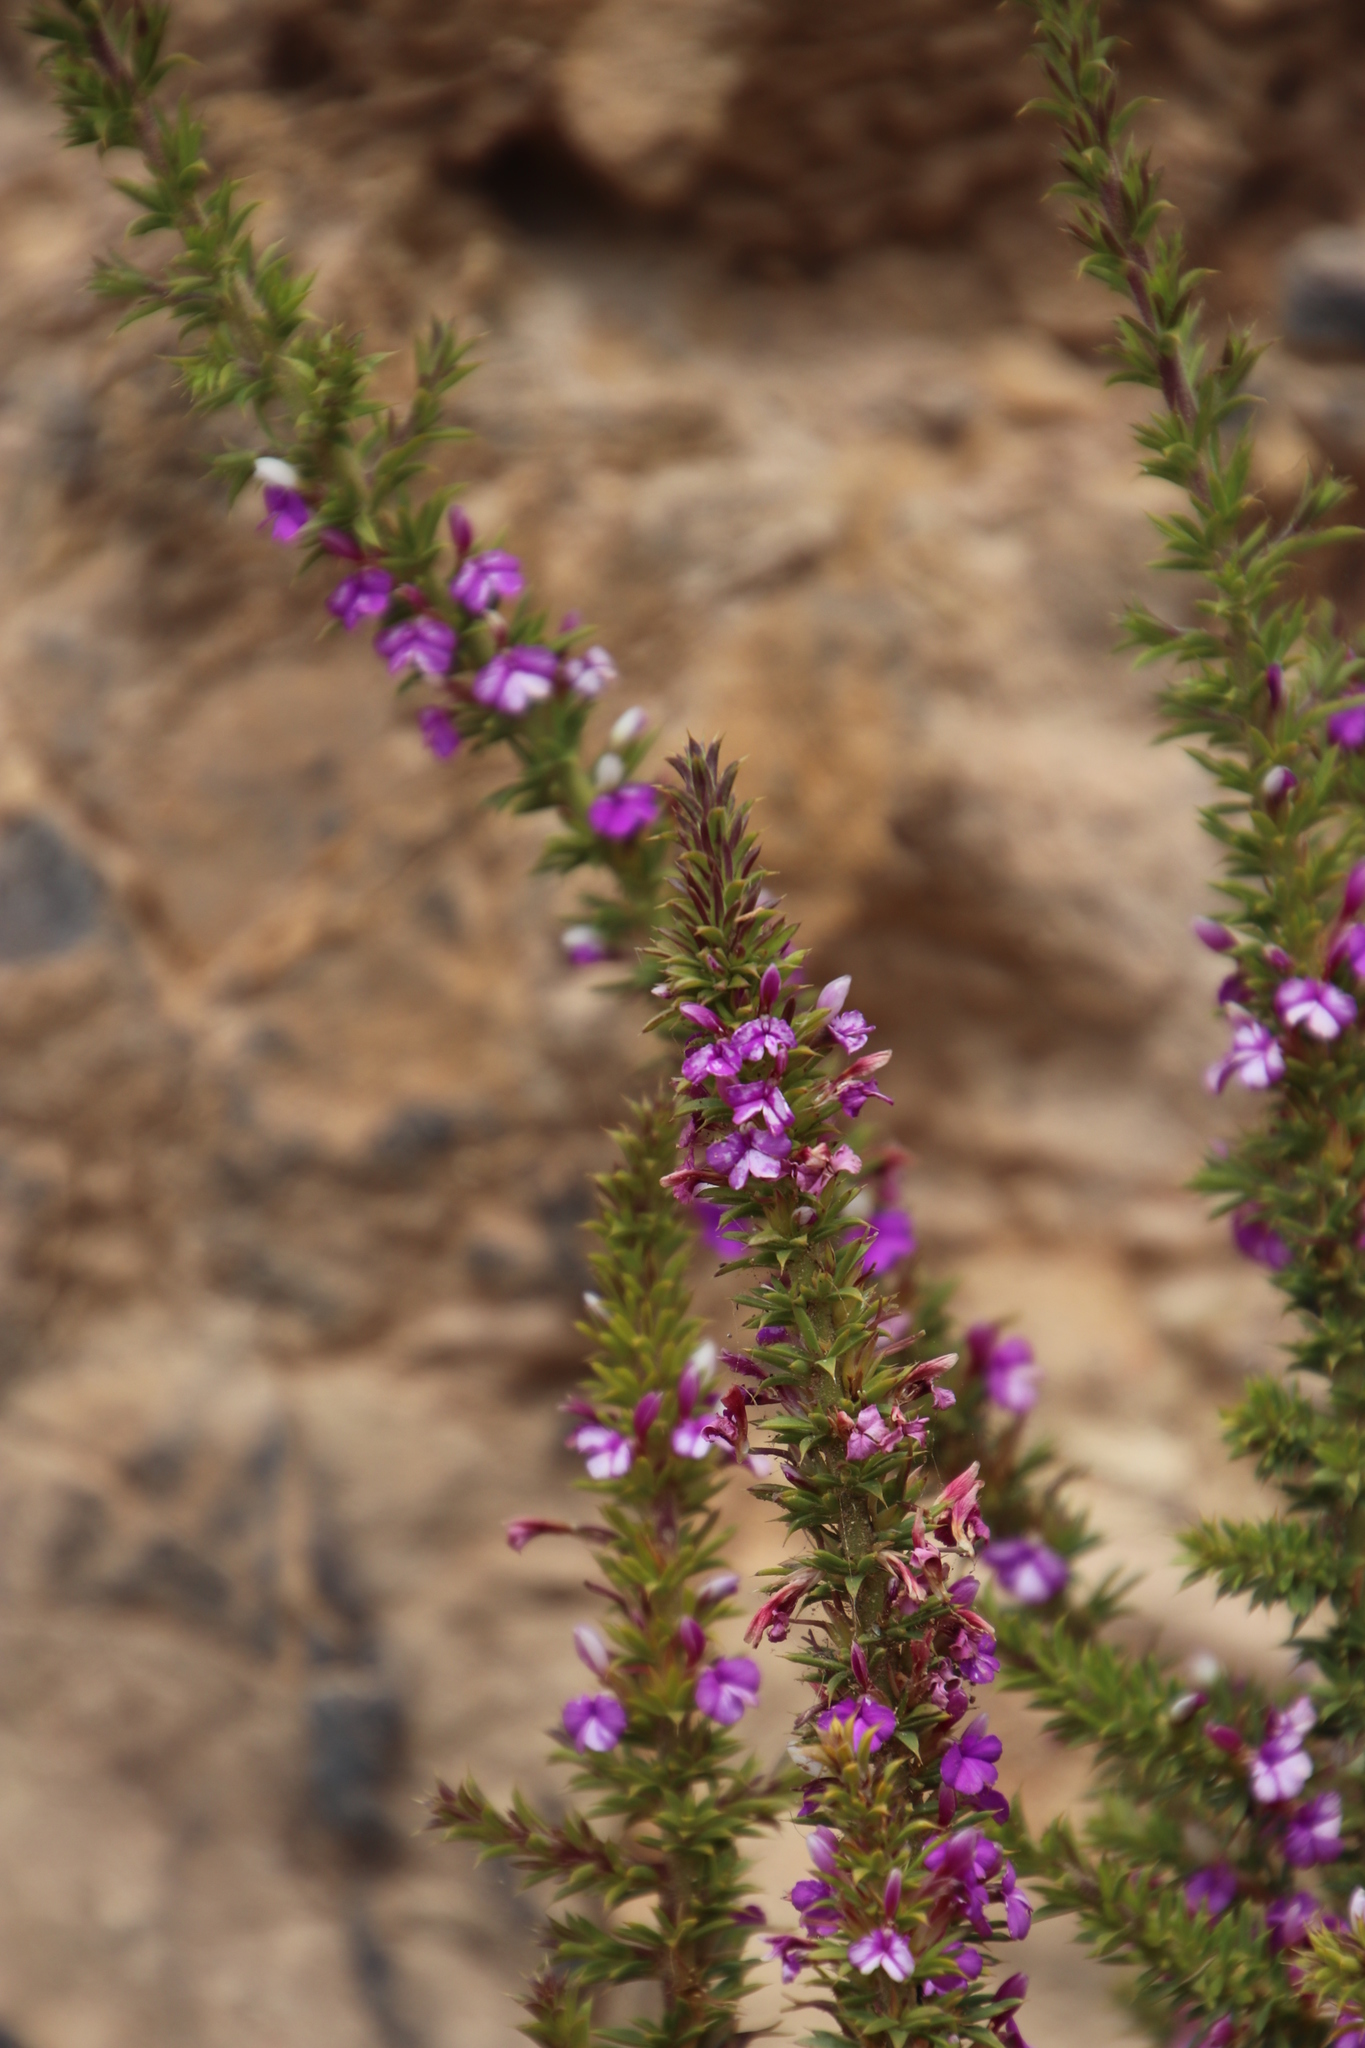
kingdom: Plantae
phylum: Tracheophyta
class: Magnoliopsida
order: Fabales
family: Polygalaceae
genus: Muraltia
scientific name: Muraltia heisteria
